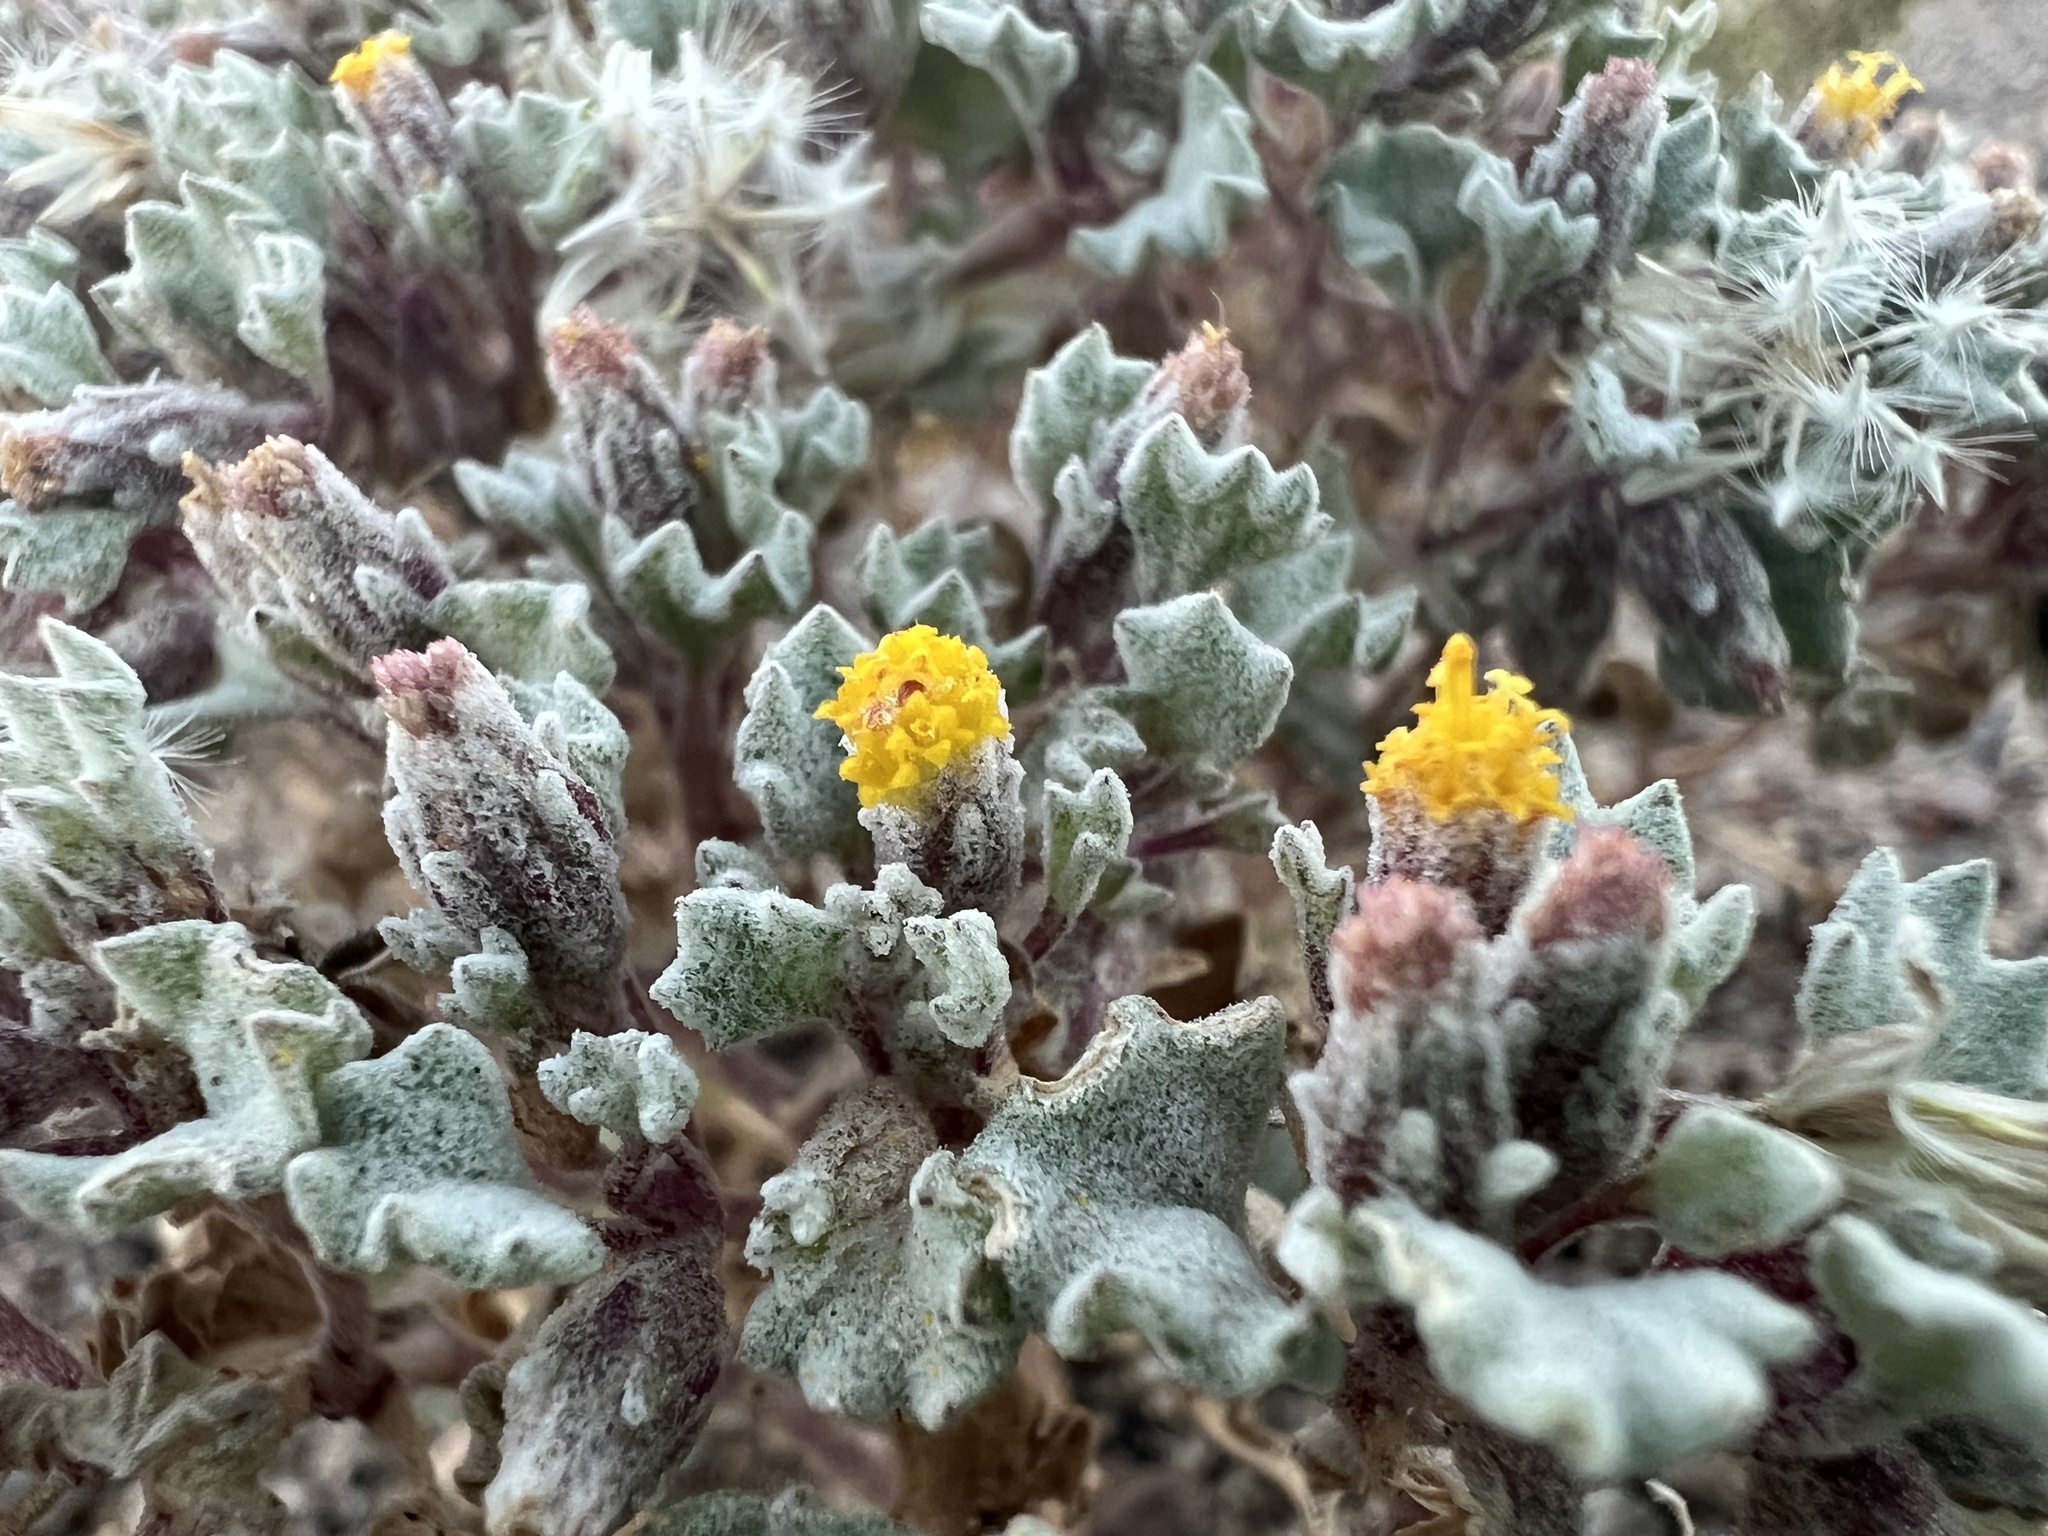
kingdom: Plantae
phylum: Tracheophyta
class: Magnoliopsida
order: Asterales
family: Asteraceae
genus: Psathyrotes
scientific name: Psathyrotes annua
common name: Mealy rosettes
